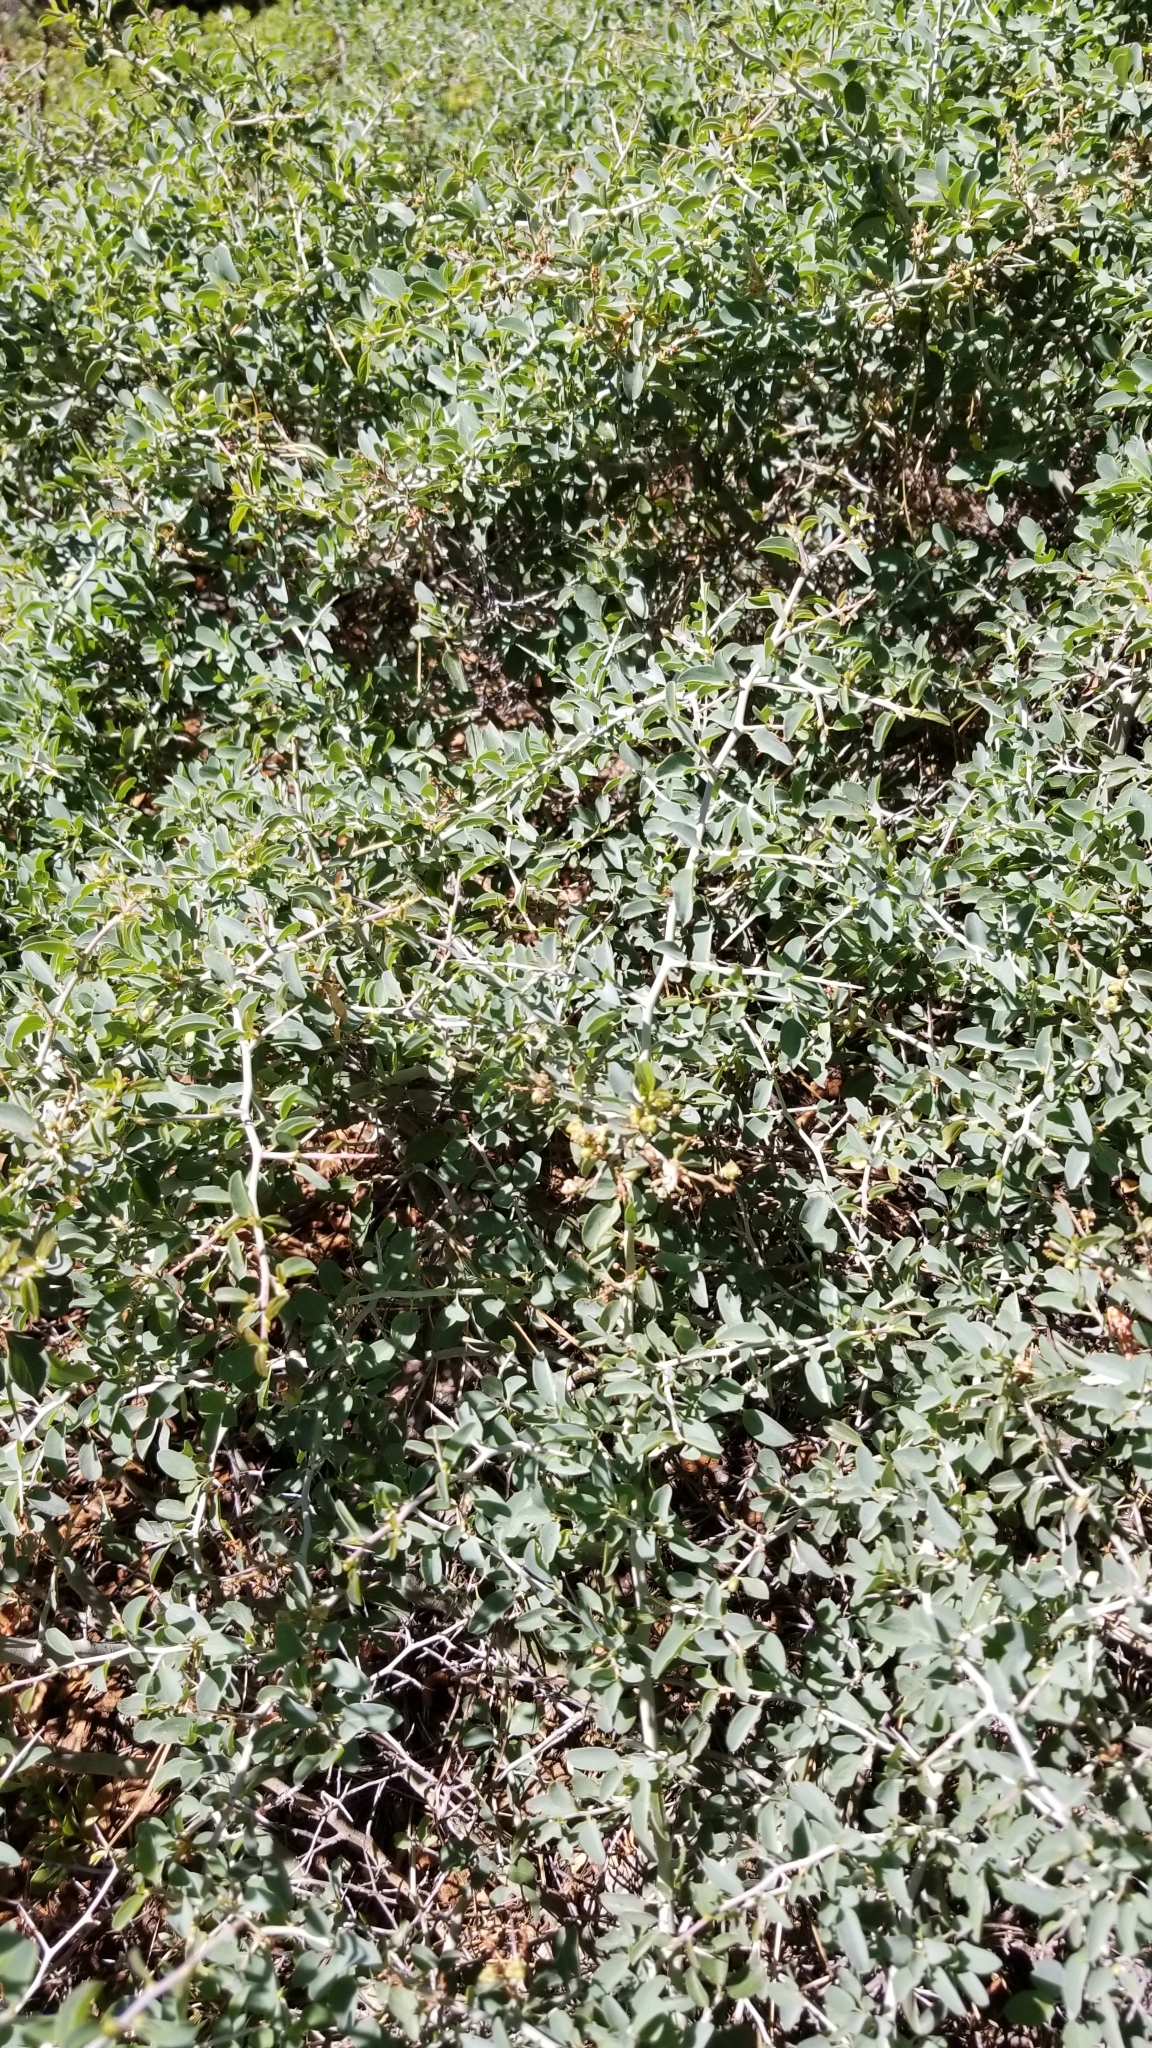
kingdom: Plantae
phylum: Tracheophyta
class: Magnoliopsida
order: Rosales
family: Rhamnaceae
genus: Ceanothus
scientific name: Ceanothus cordulatus
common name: Mountain whitethorn
